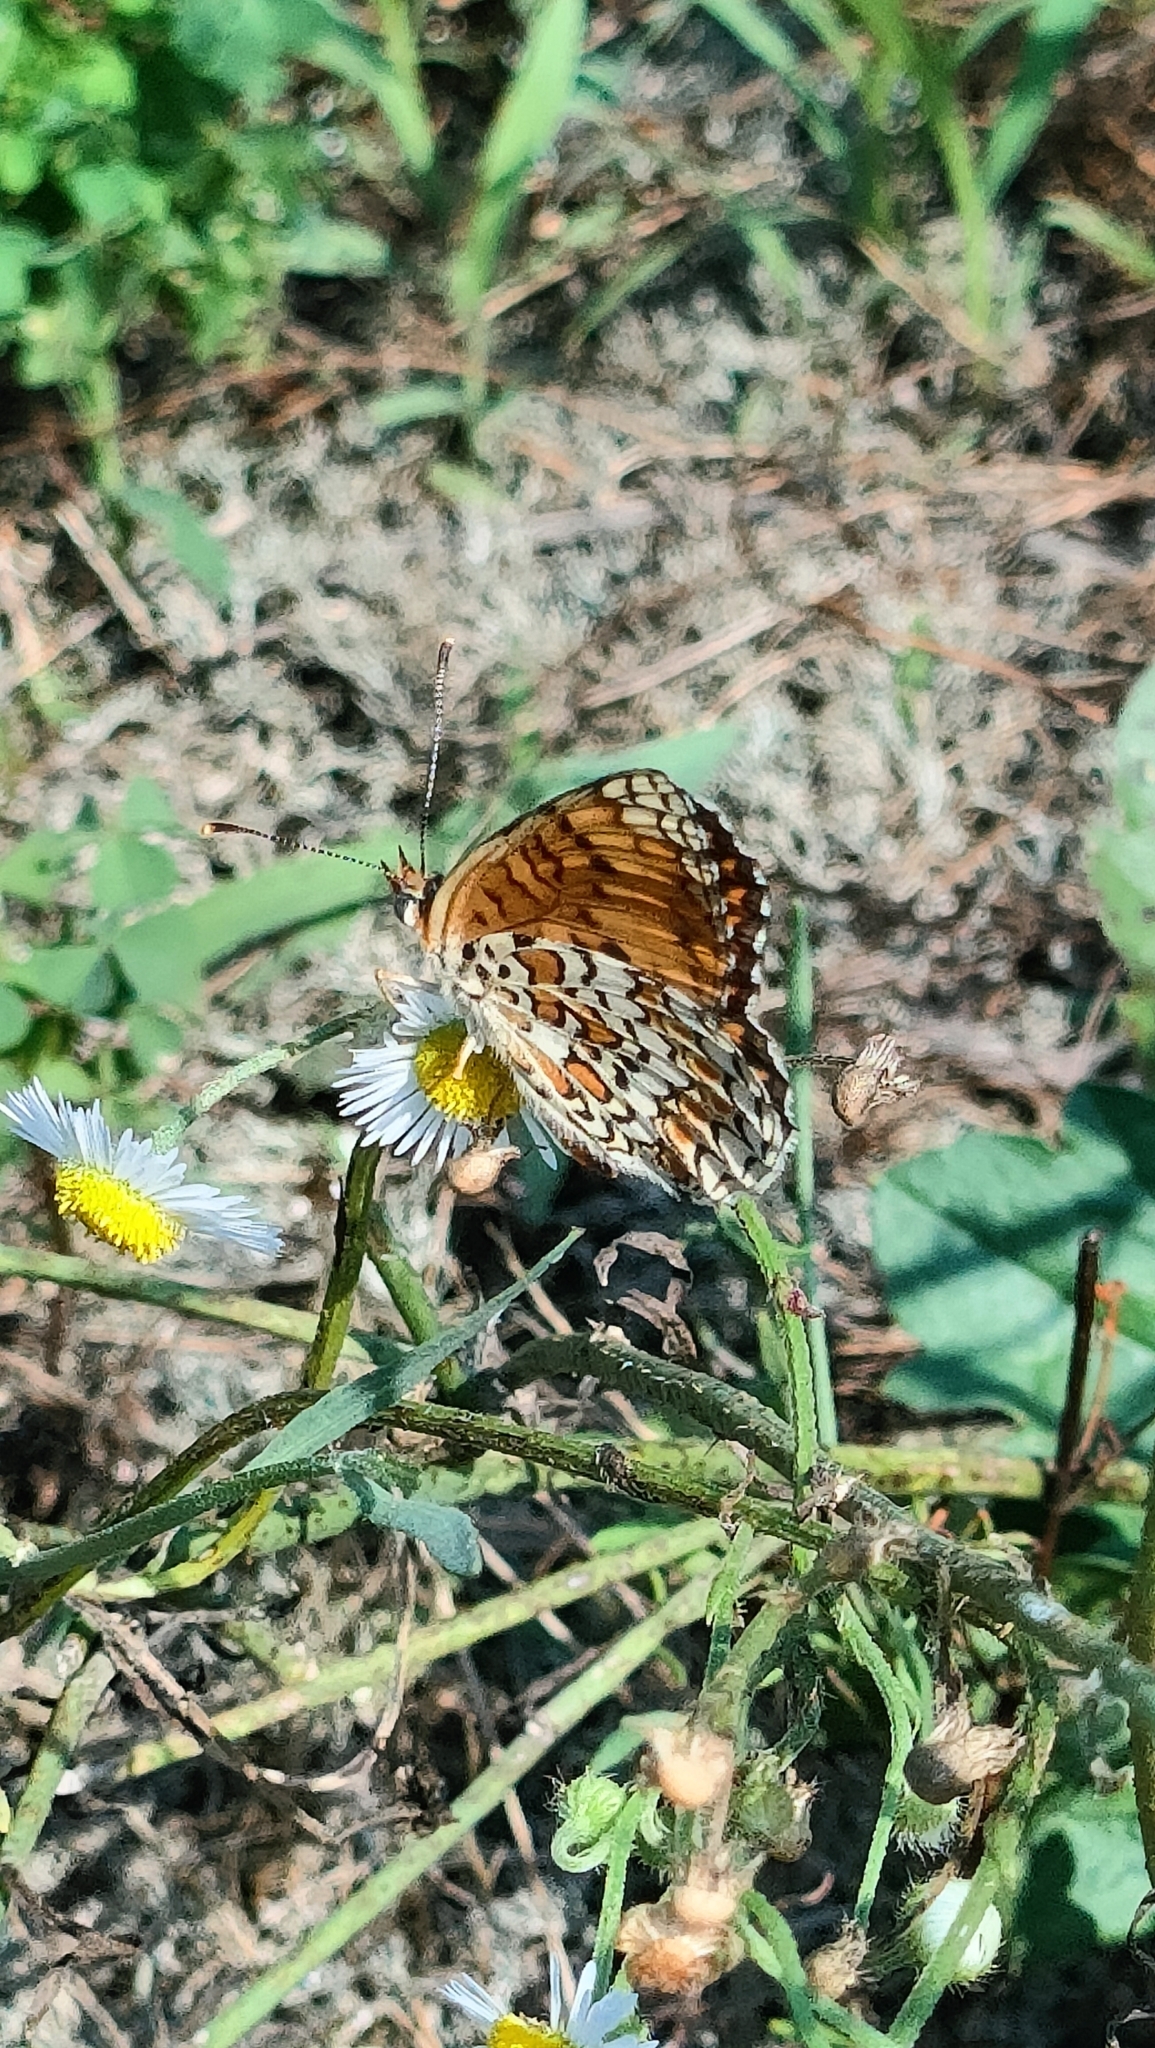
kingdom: Animalia
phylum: Arthropoda
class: Insecta
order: Lepidoptera
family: Nymphalidae
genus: Melitaea
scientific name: Melitaea phoebe
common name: Knapweed fritillary
